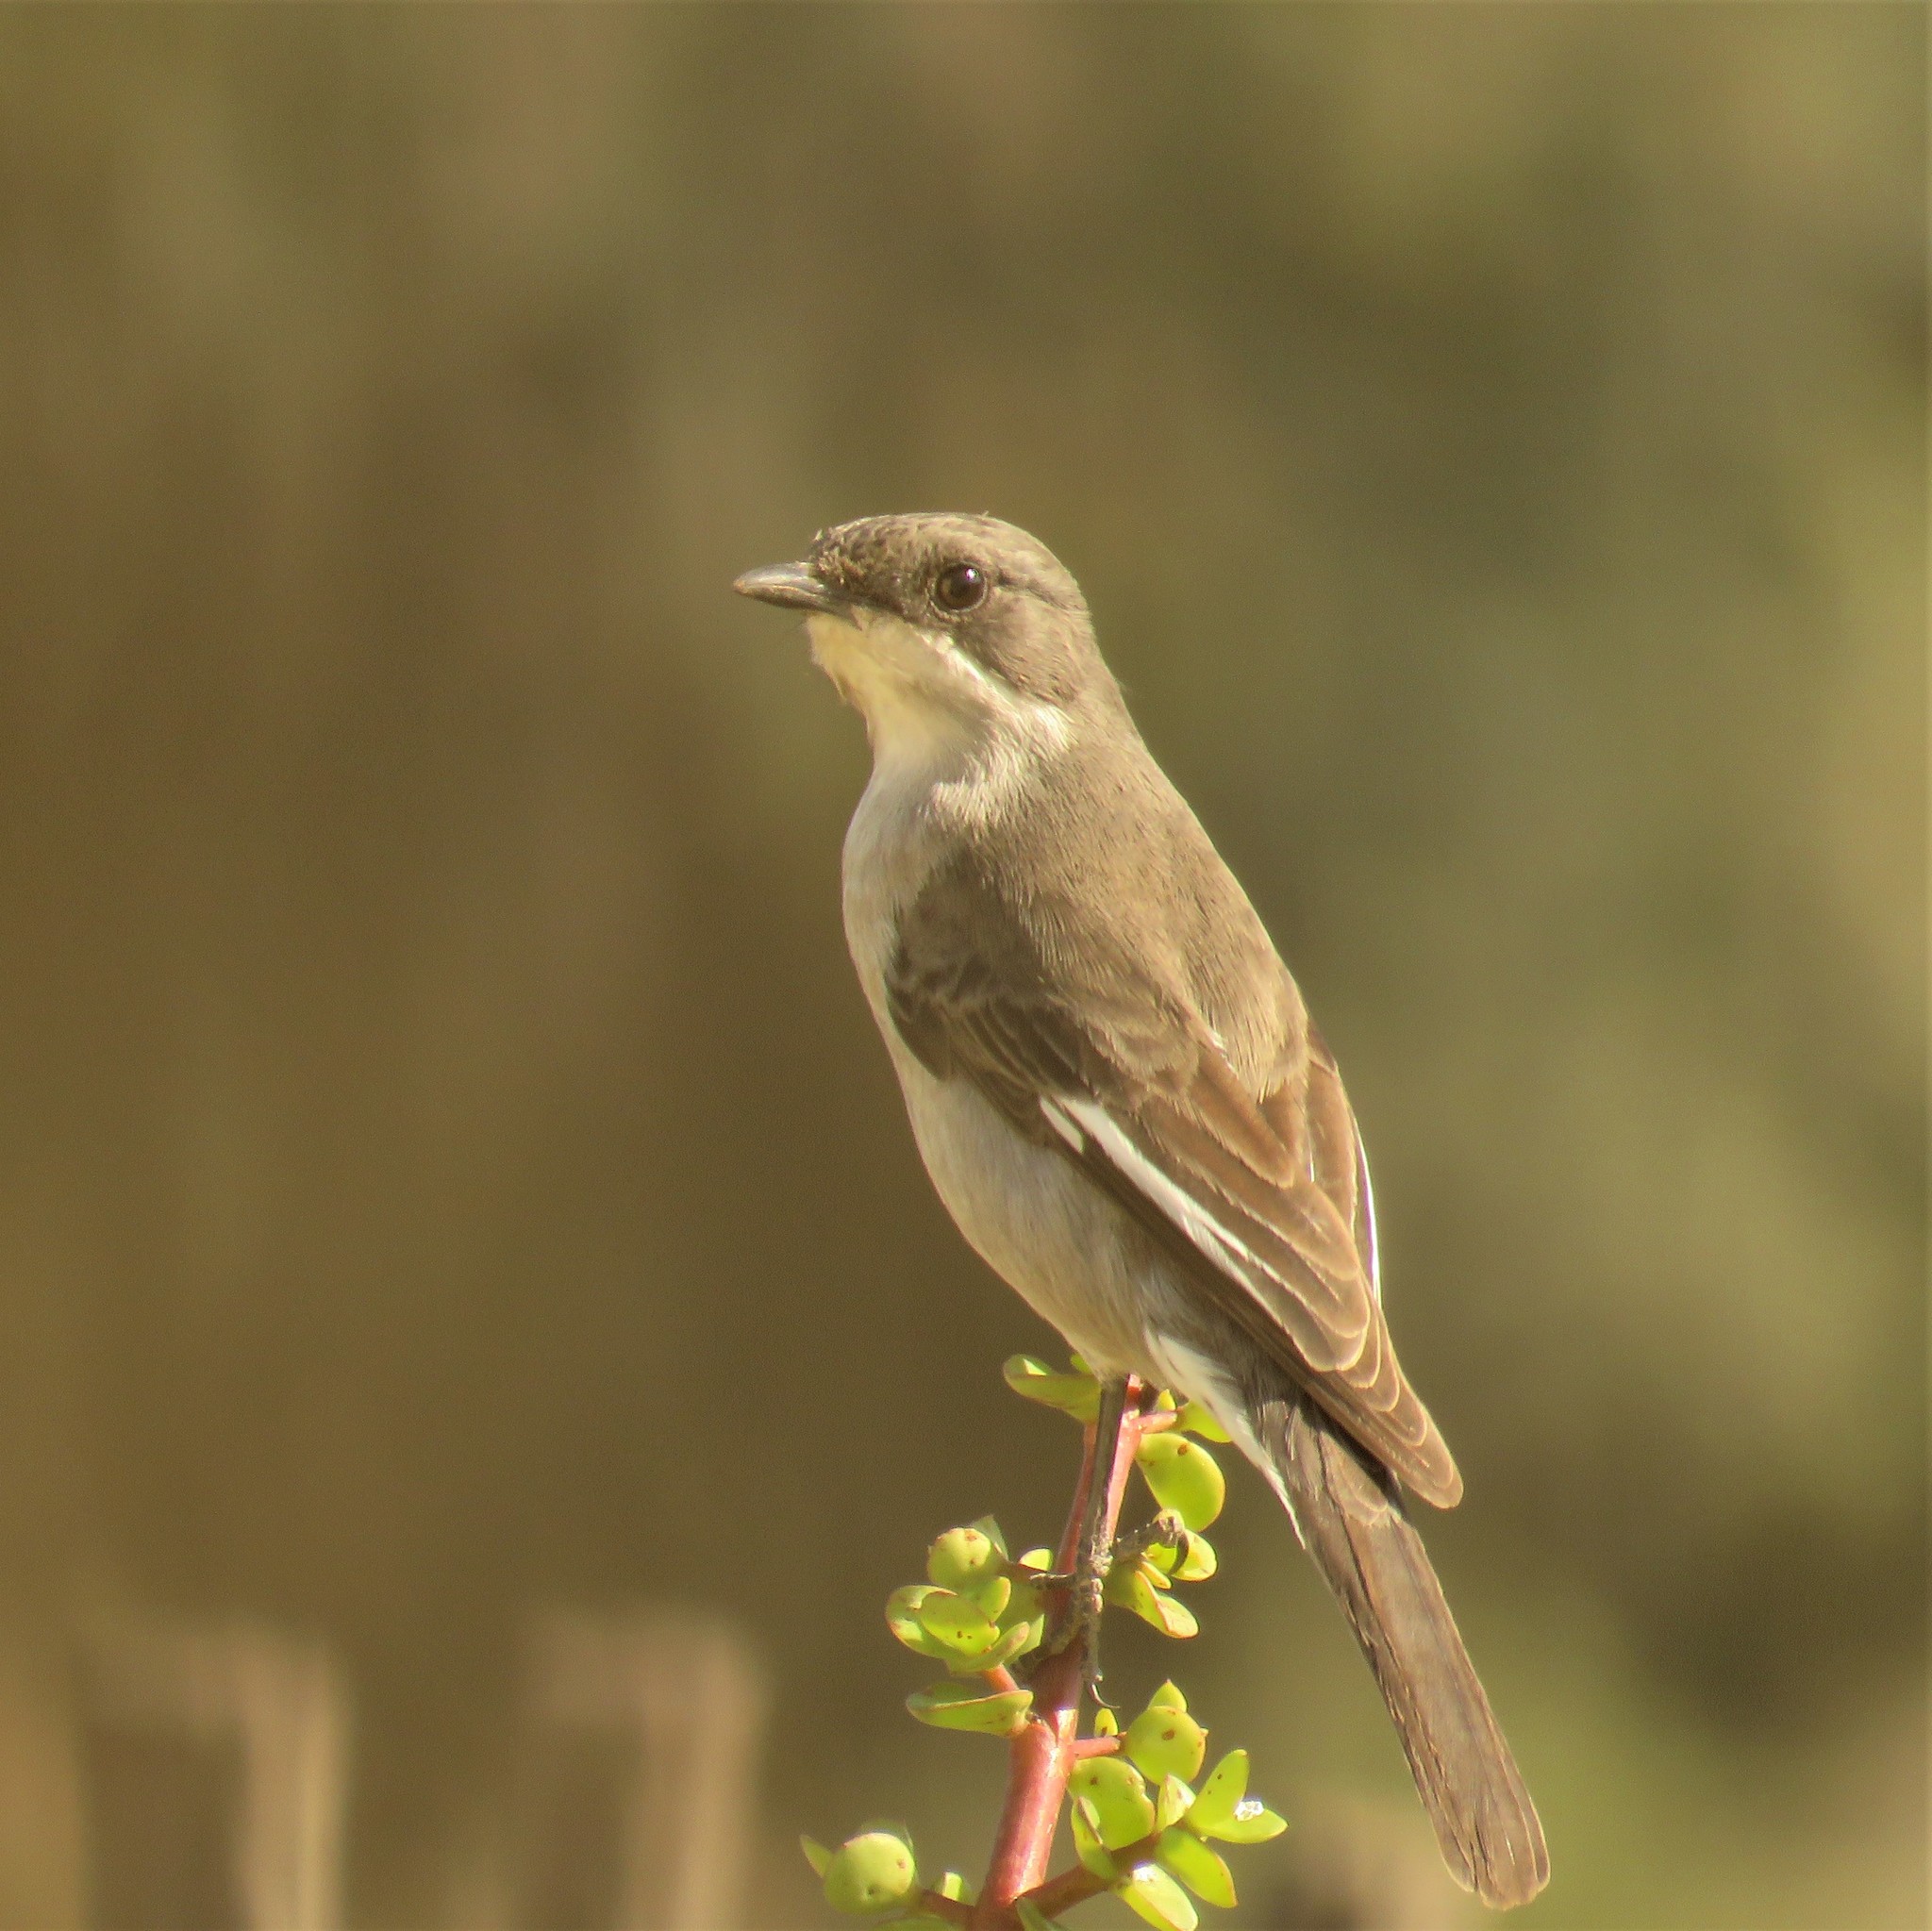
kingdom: Animalia
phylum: Chordata
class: Aves
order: Passeriformes
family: Muscicapidae
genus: Sigelus
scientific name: Sigelus silens
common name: Fiscal flycatcher
